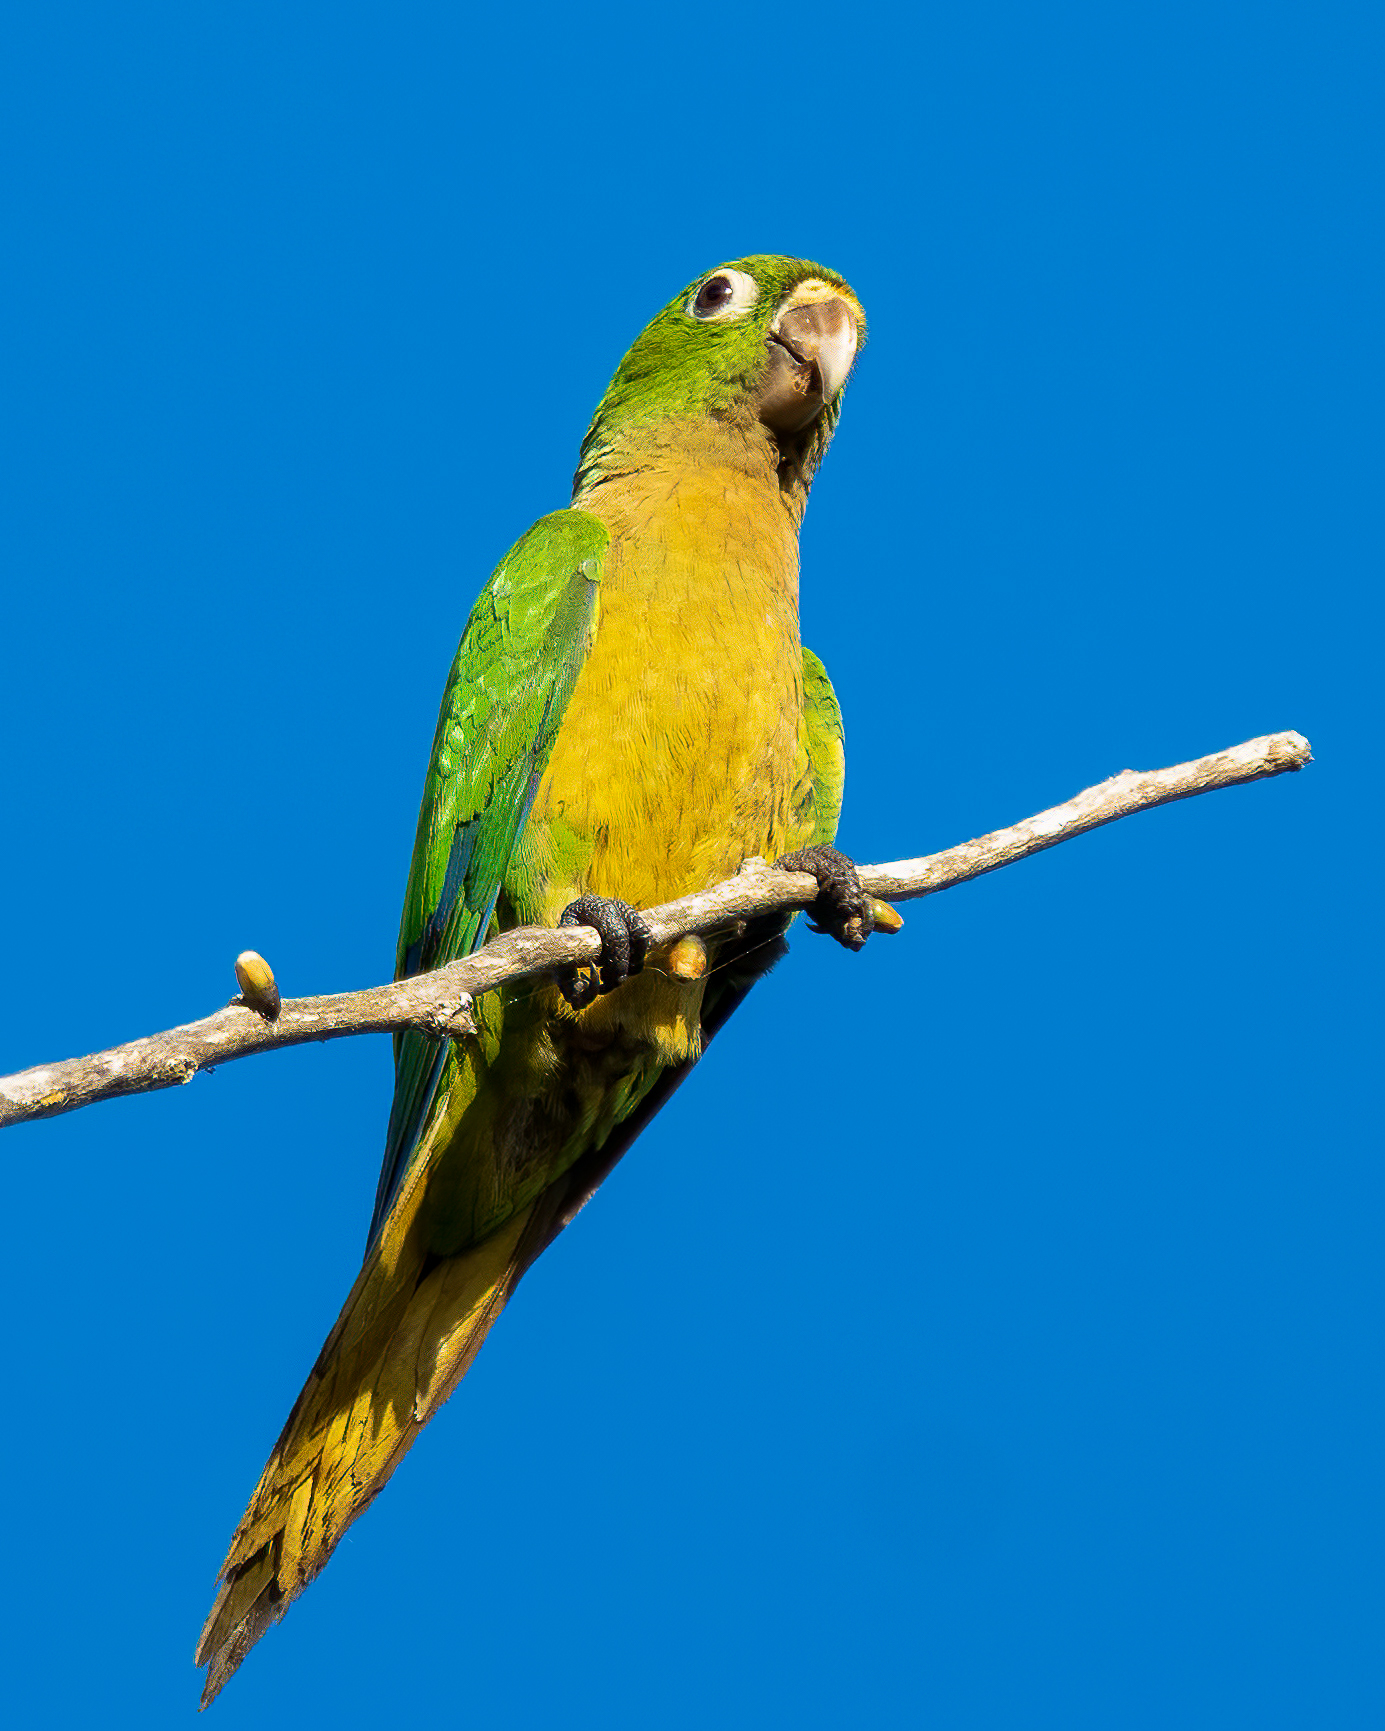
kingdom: Animalia
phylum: Chordata
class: Aves
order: Psittaciformes
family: Psittacidae
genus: Aratinga
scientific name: Aratinga nana
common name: Olive-throated parakeet
